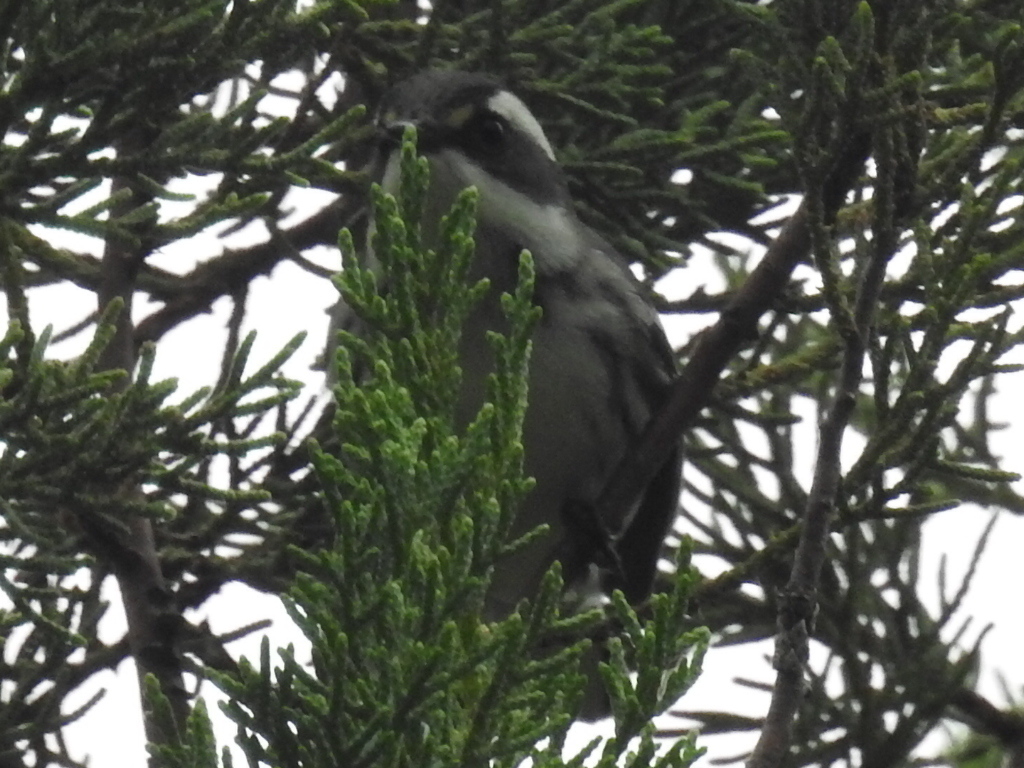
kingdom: Animalia
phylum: Chordata
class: Aves
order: Passeriformes
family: Parulidae
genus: Setophaga
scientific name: Setophaga nigrescens
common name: Black-throated gray warbler
